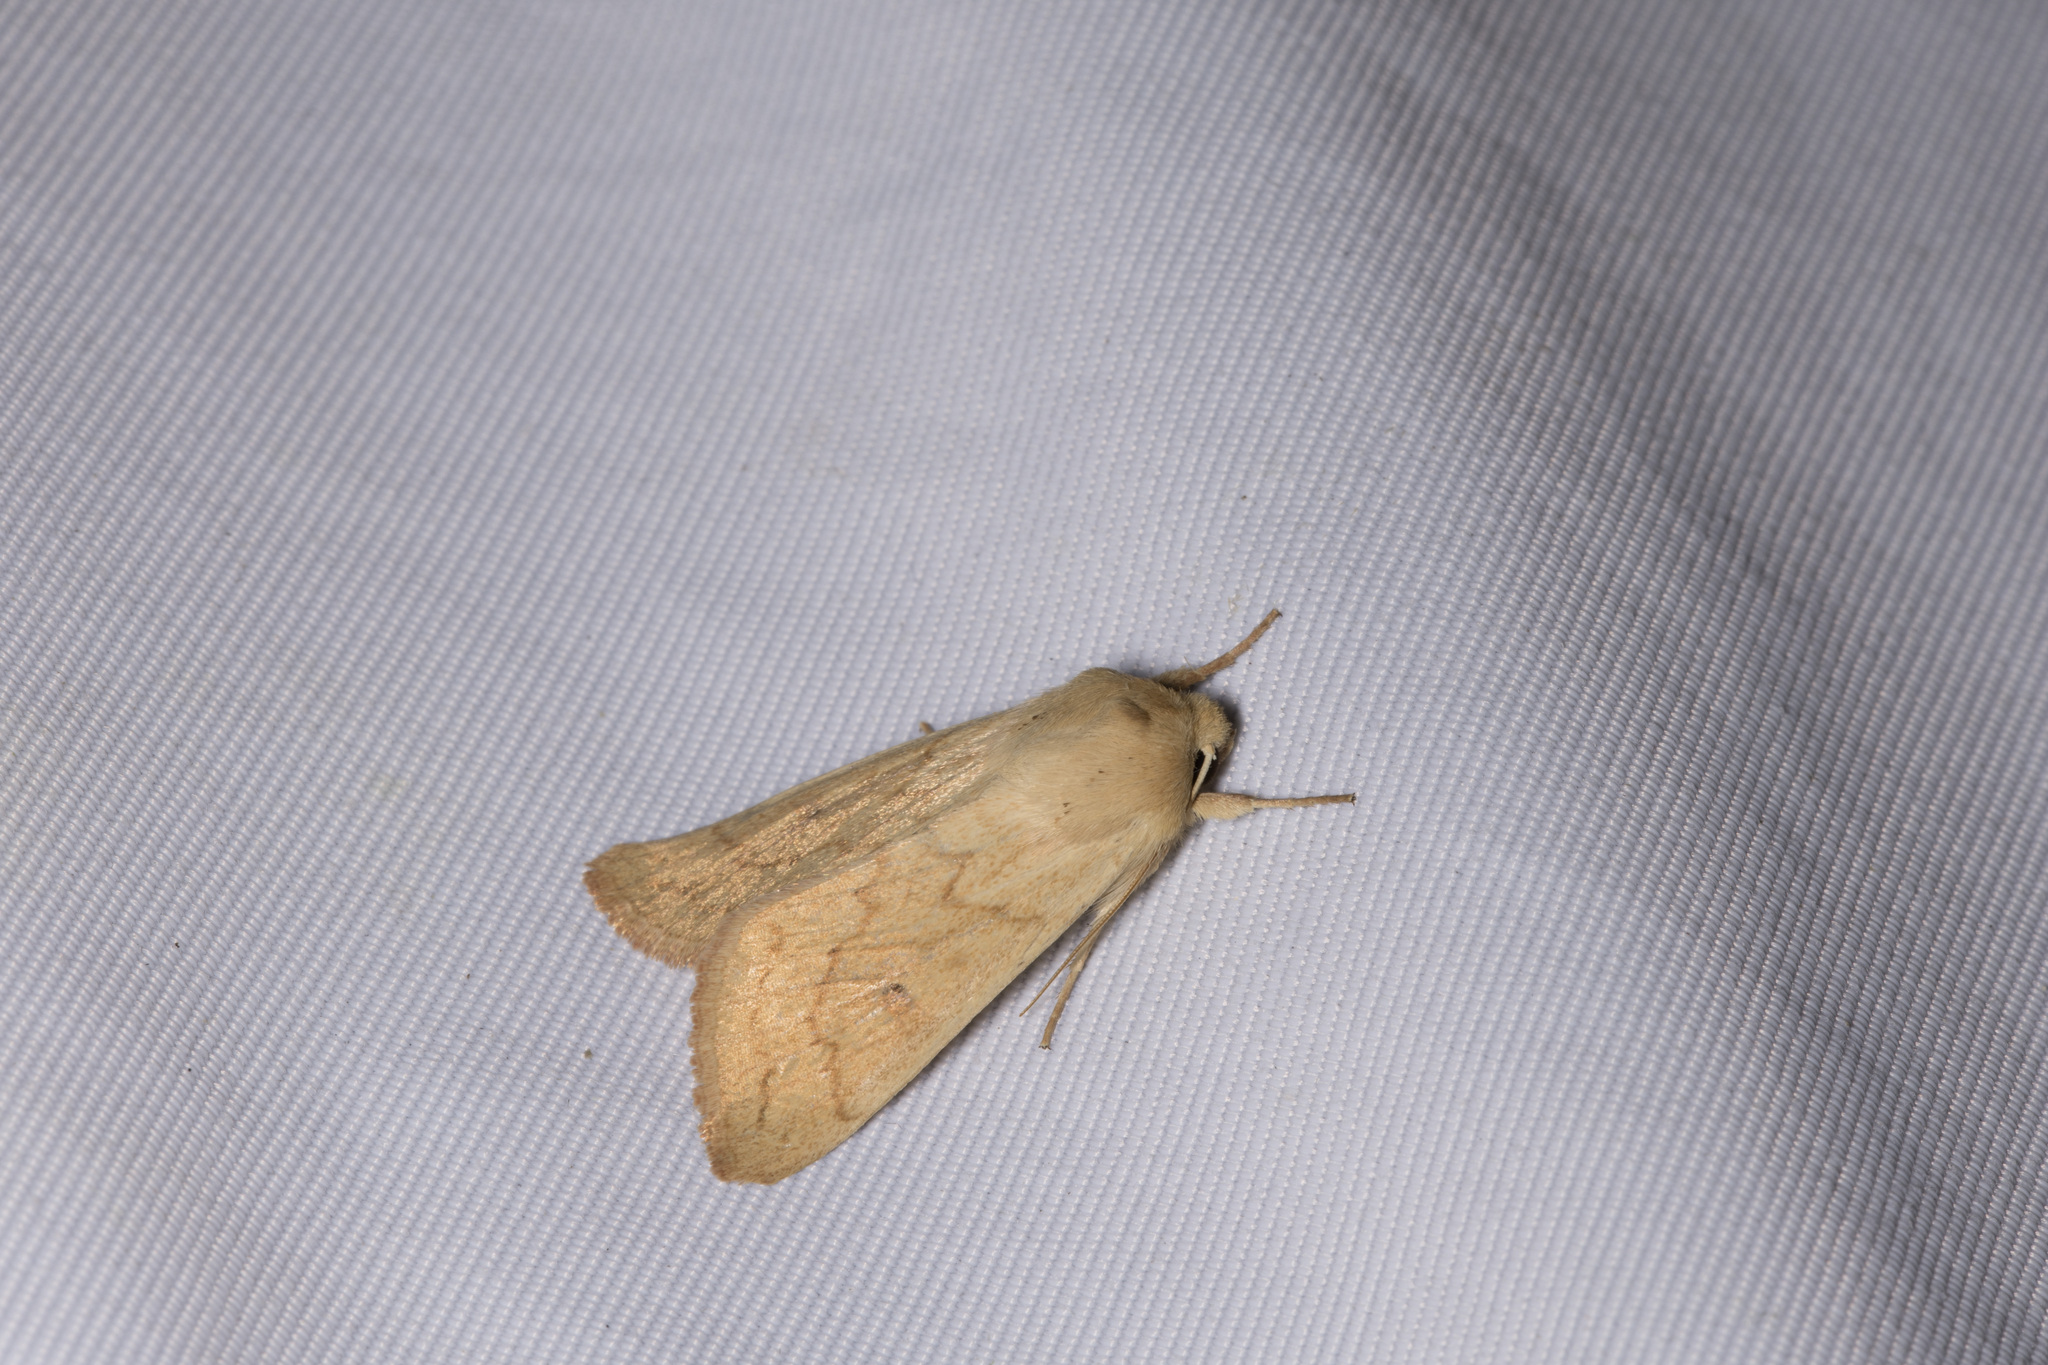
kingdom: Animalia
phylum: Arthropoda
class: Insecta
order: Lepidoptera
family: Noctuidae
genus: Mythimna
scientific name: Mythimna vitellina
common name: Delicate
